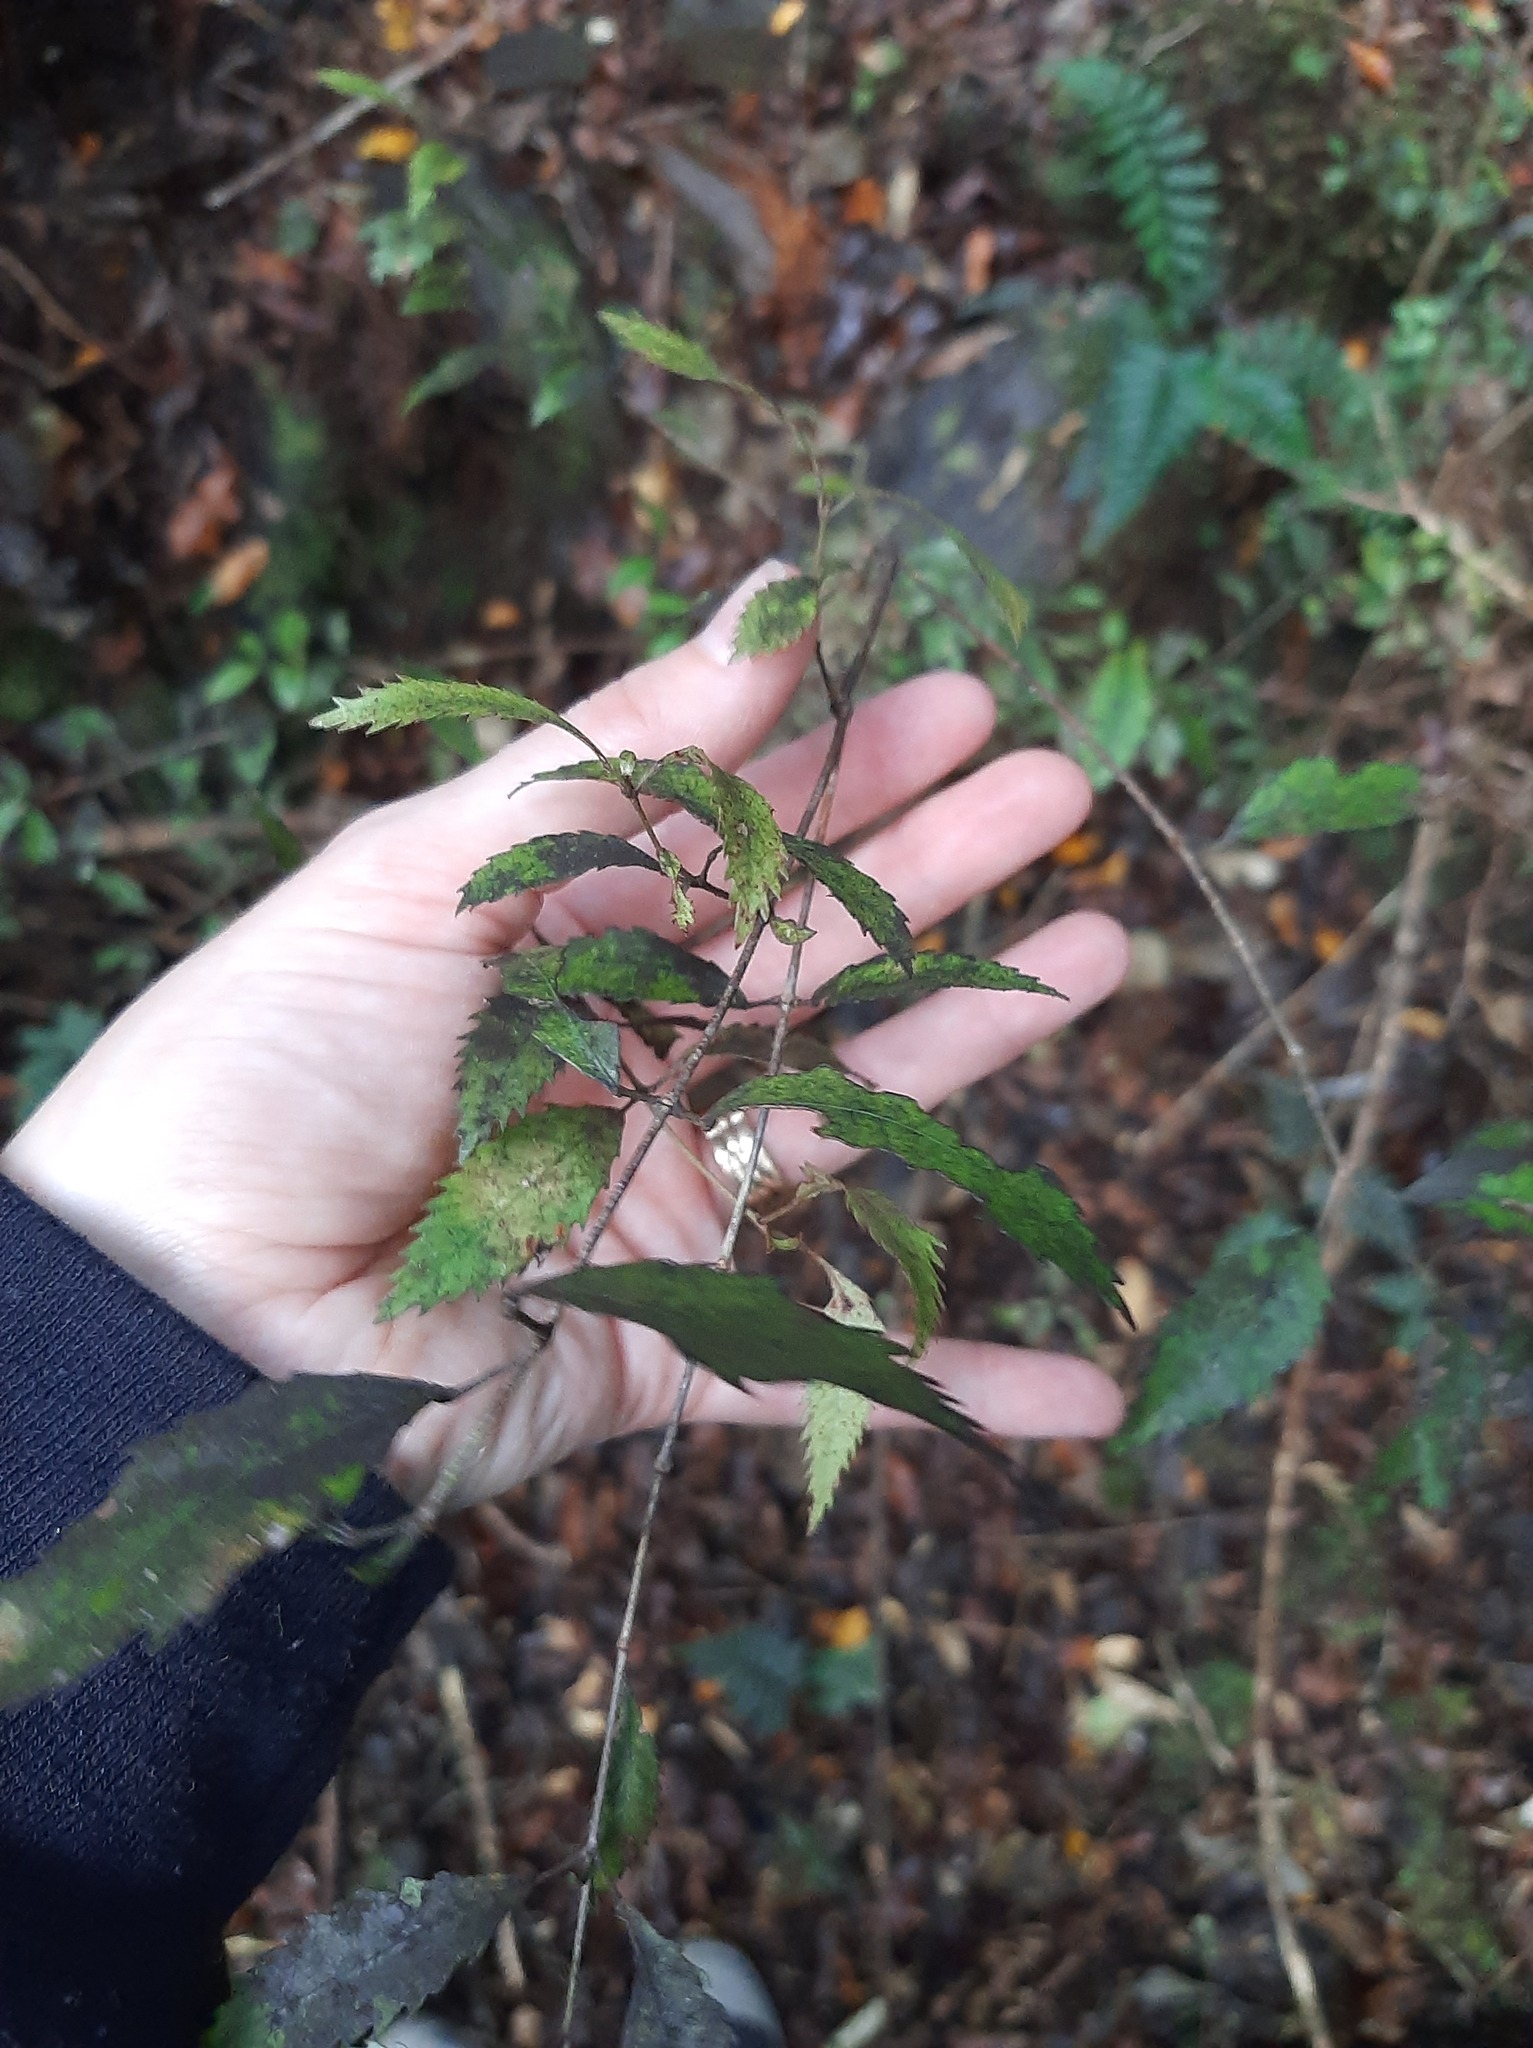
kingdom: Plantae
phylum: Tracheophyta
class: Magnoliopsida
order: Oxalidales
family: Cunoniaceae
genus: Pterophylla
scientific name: Pterophylla racemosa
